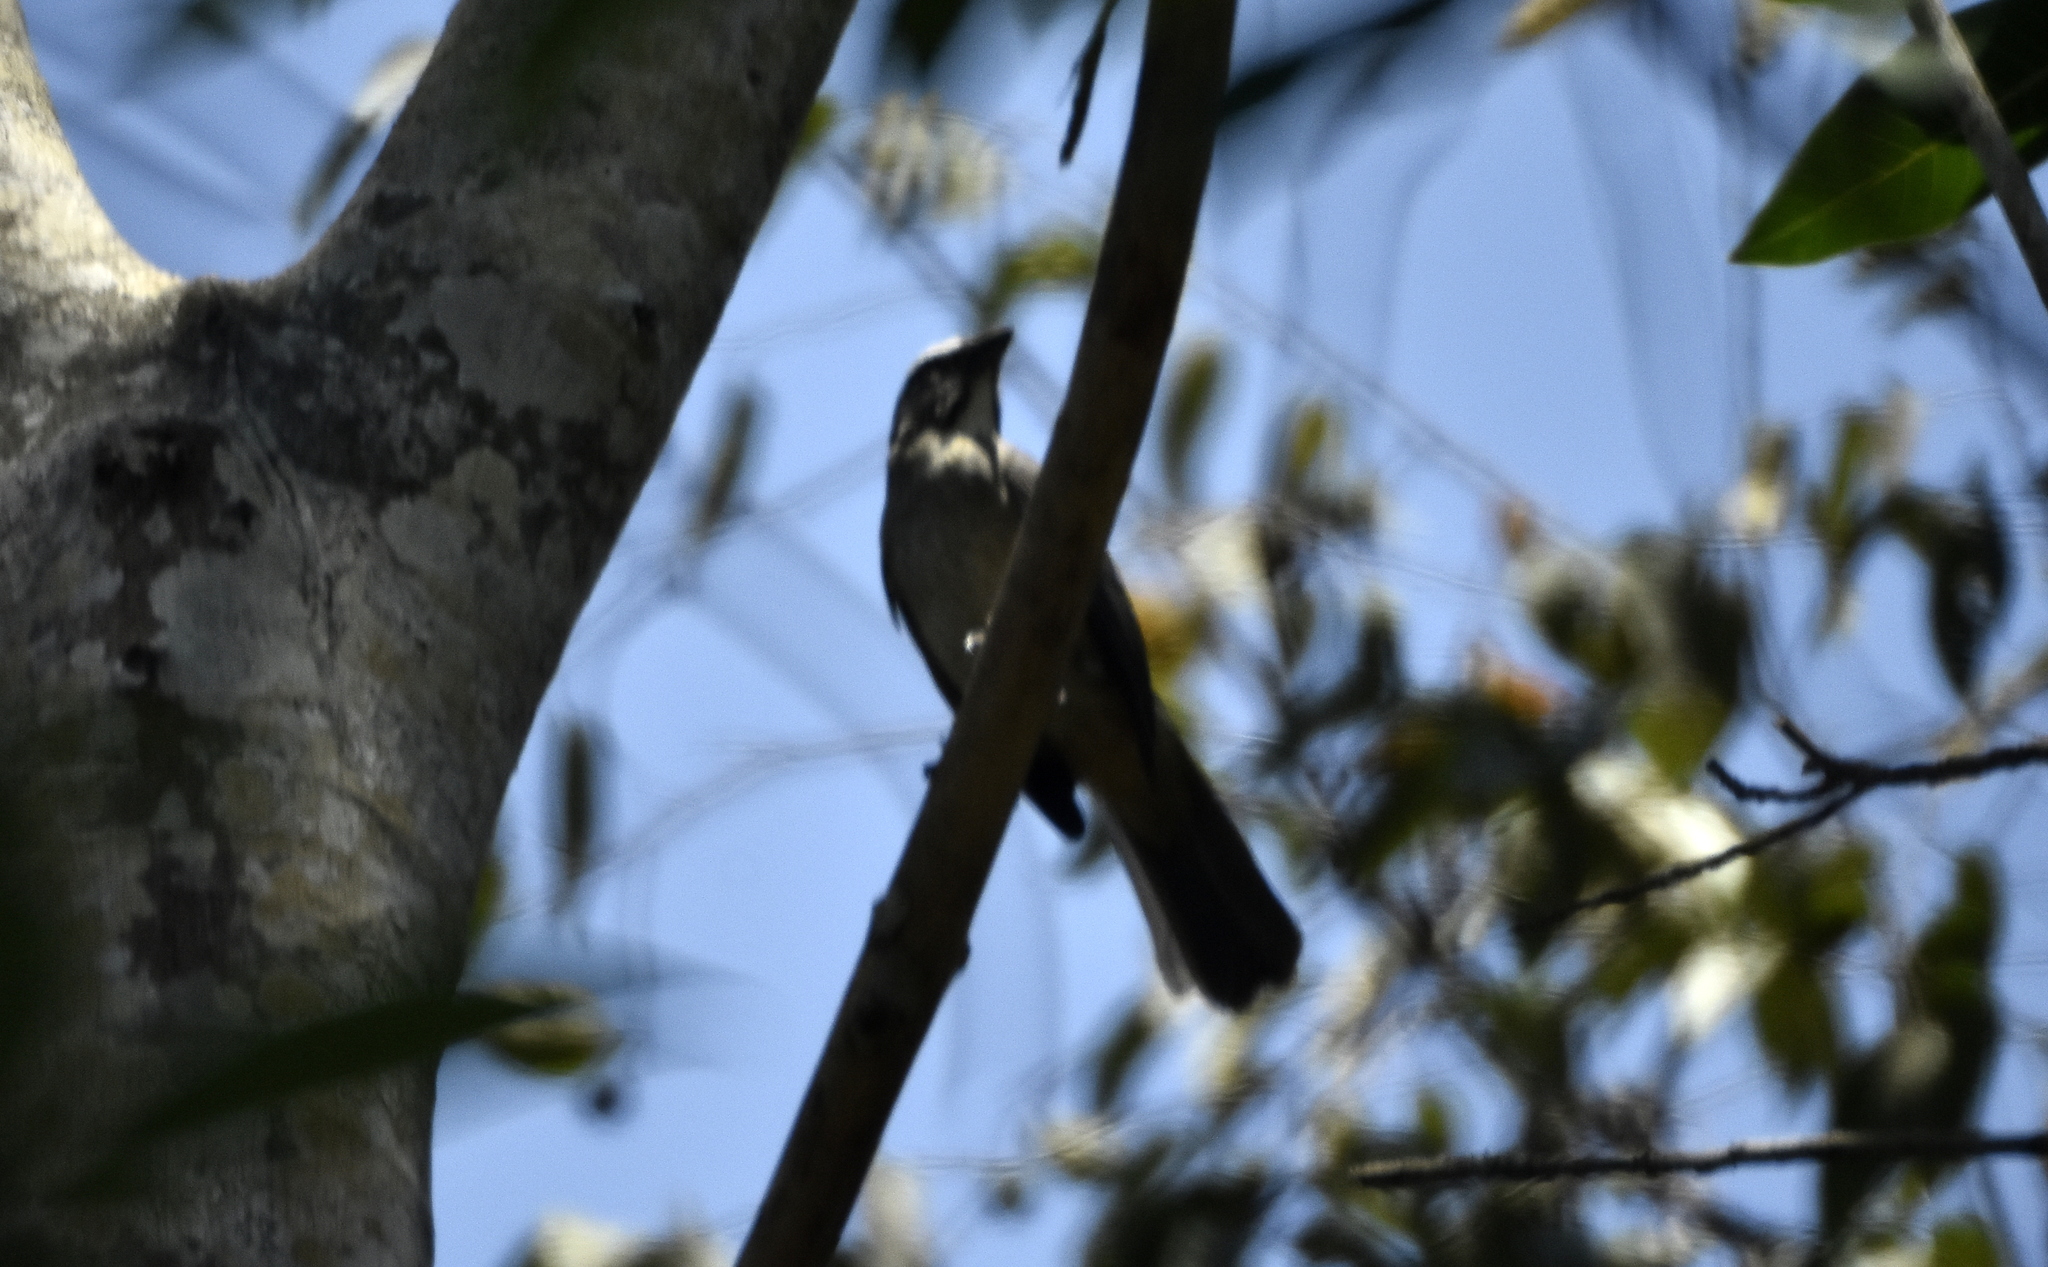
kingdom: Animalia
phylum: Chordata
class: Aves
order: Passeriformes
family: Thraupidae
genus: Saltator
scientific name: Saltator grandis
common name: Cinnamon-bellied saltator
